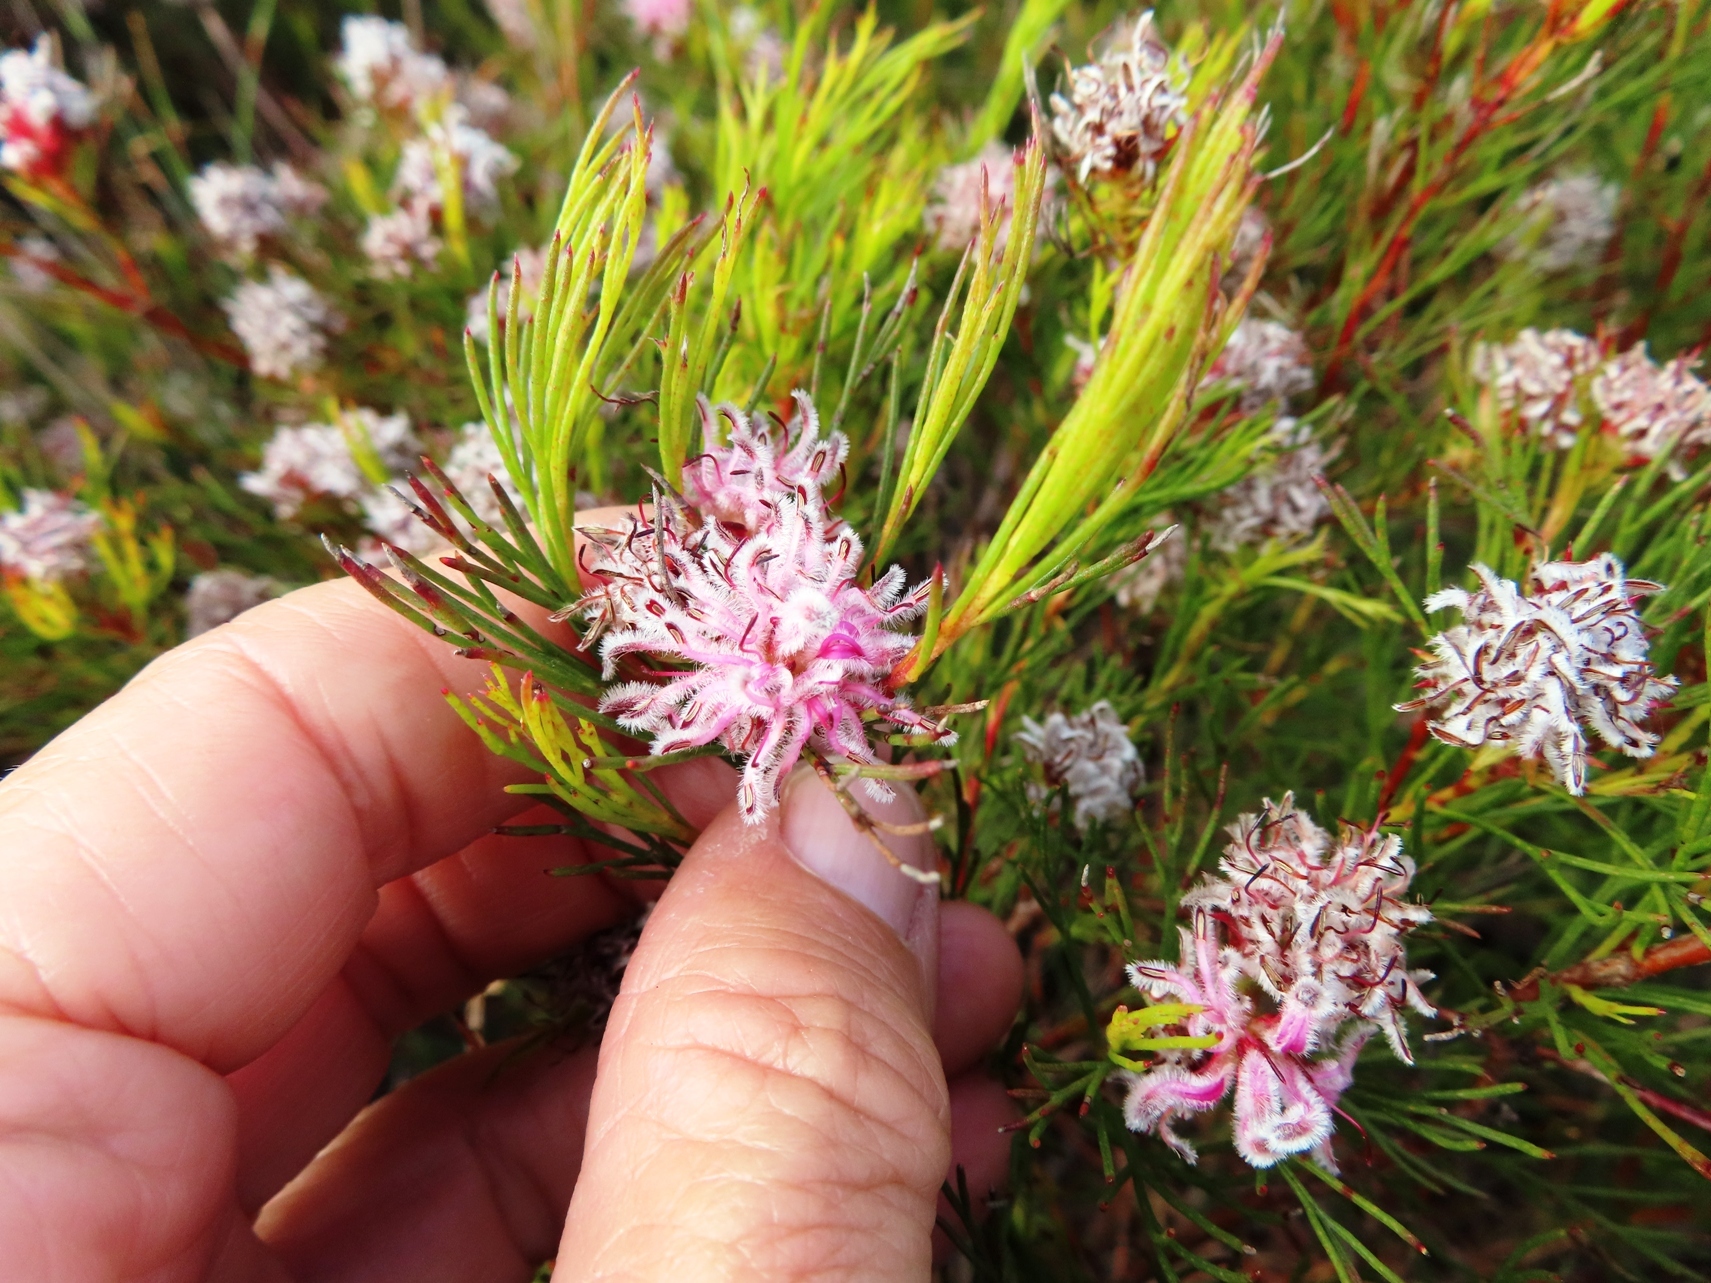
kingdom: Plantae
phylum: Tracheophyta
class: Magnoliopsida
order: Proteales
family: Proteaceae
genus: Serruria
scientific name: Serruria nervosa
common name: Fluted spiderhead
